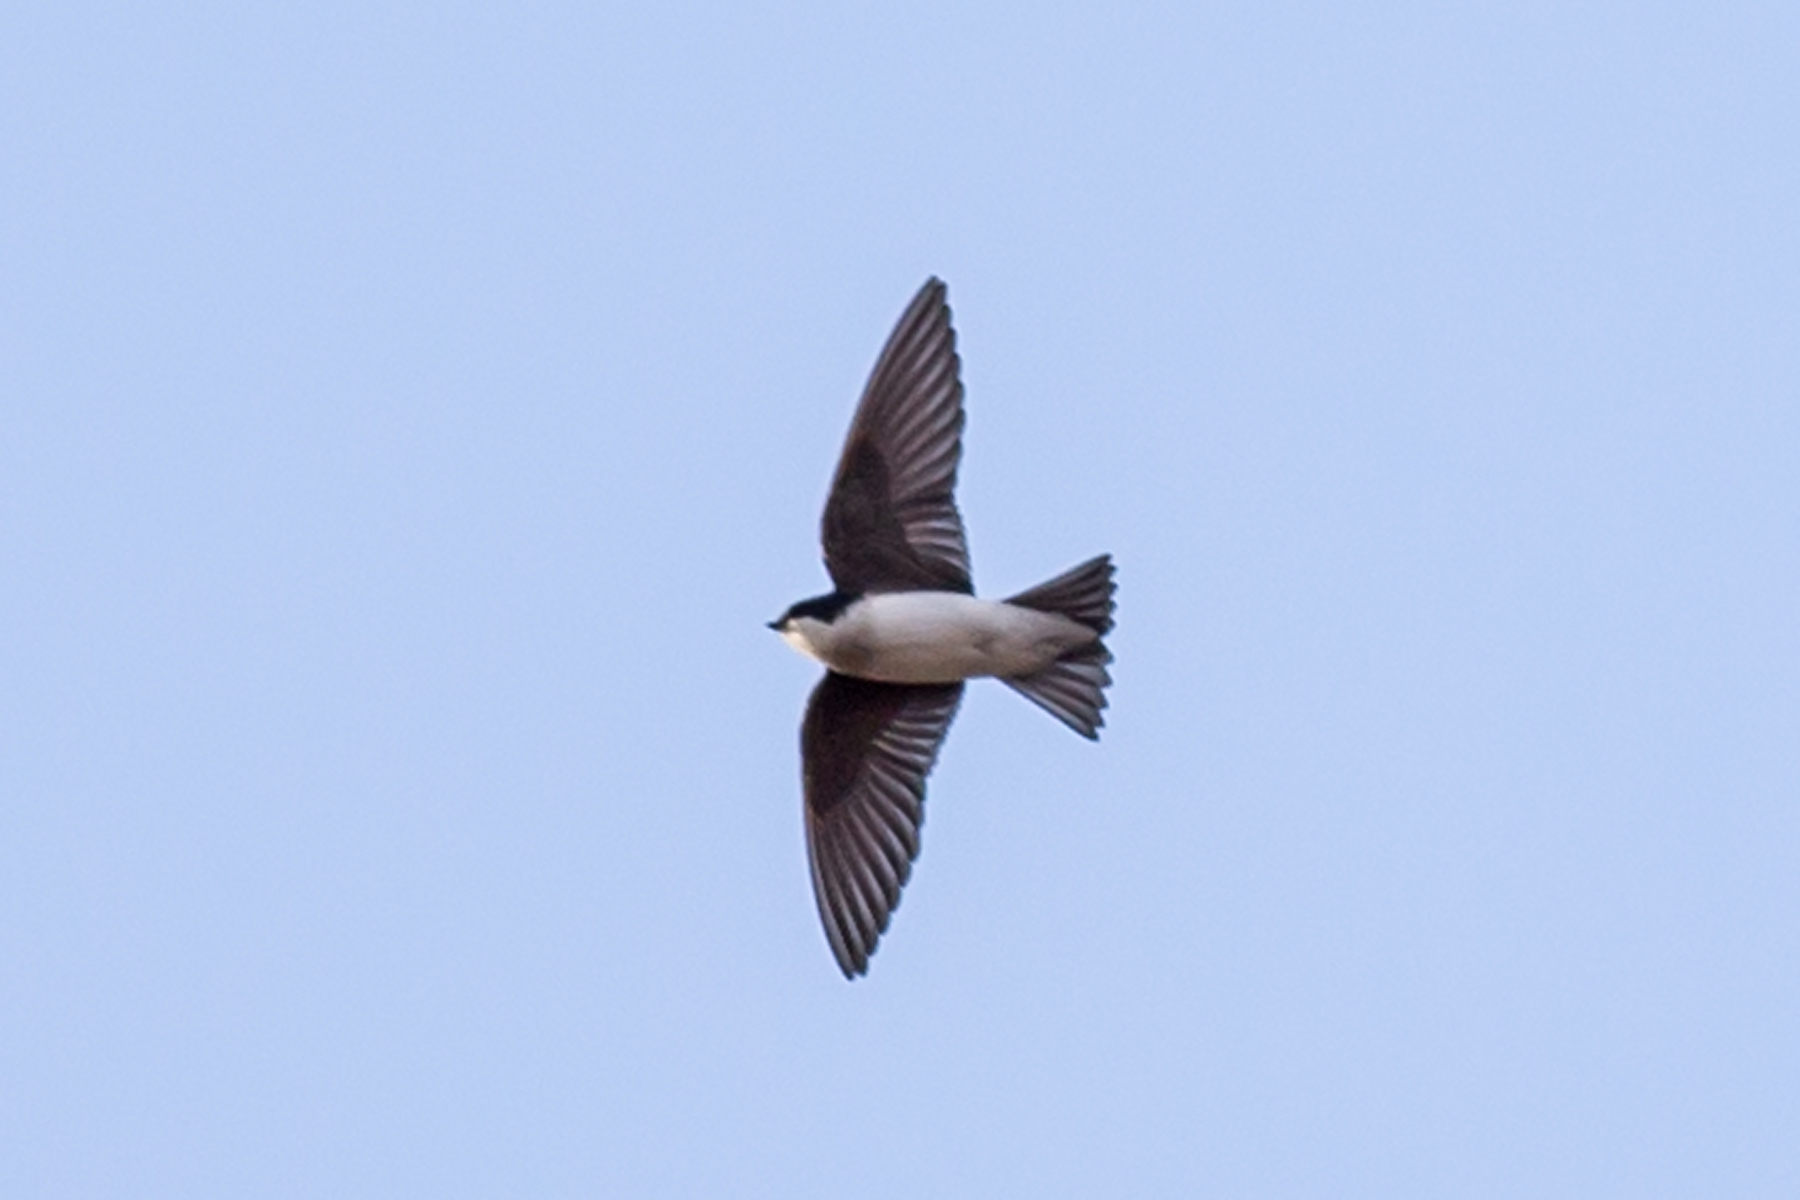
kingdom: Animalia
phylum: Chordata
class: Aves
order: Passeriformes
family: Hirundinidae
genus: Tachycineta
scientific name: Tachycineta bicolor
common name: Tree swallow
